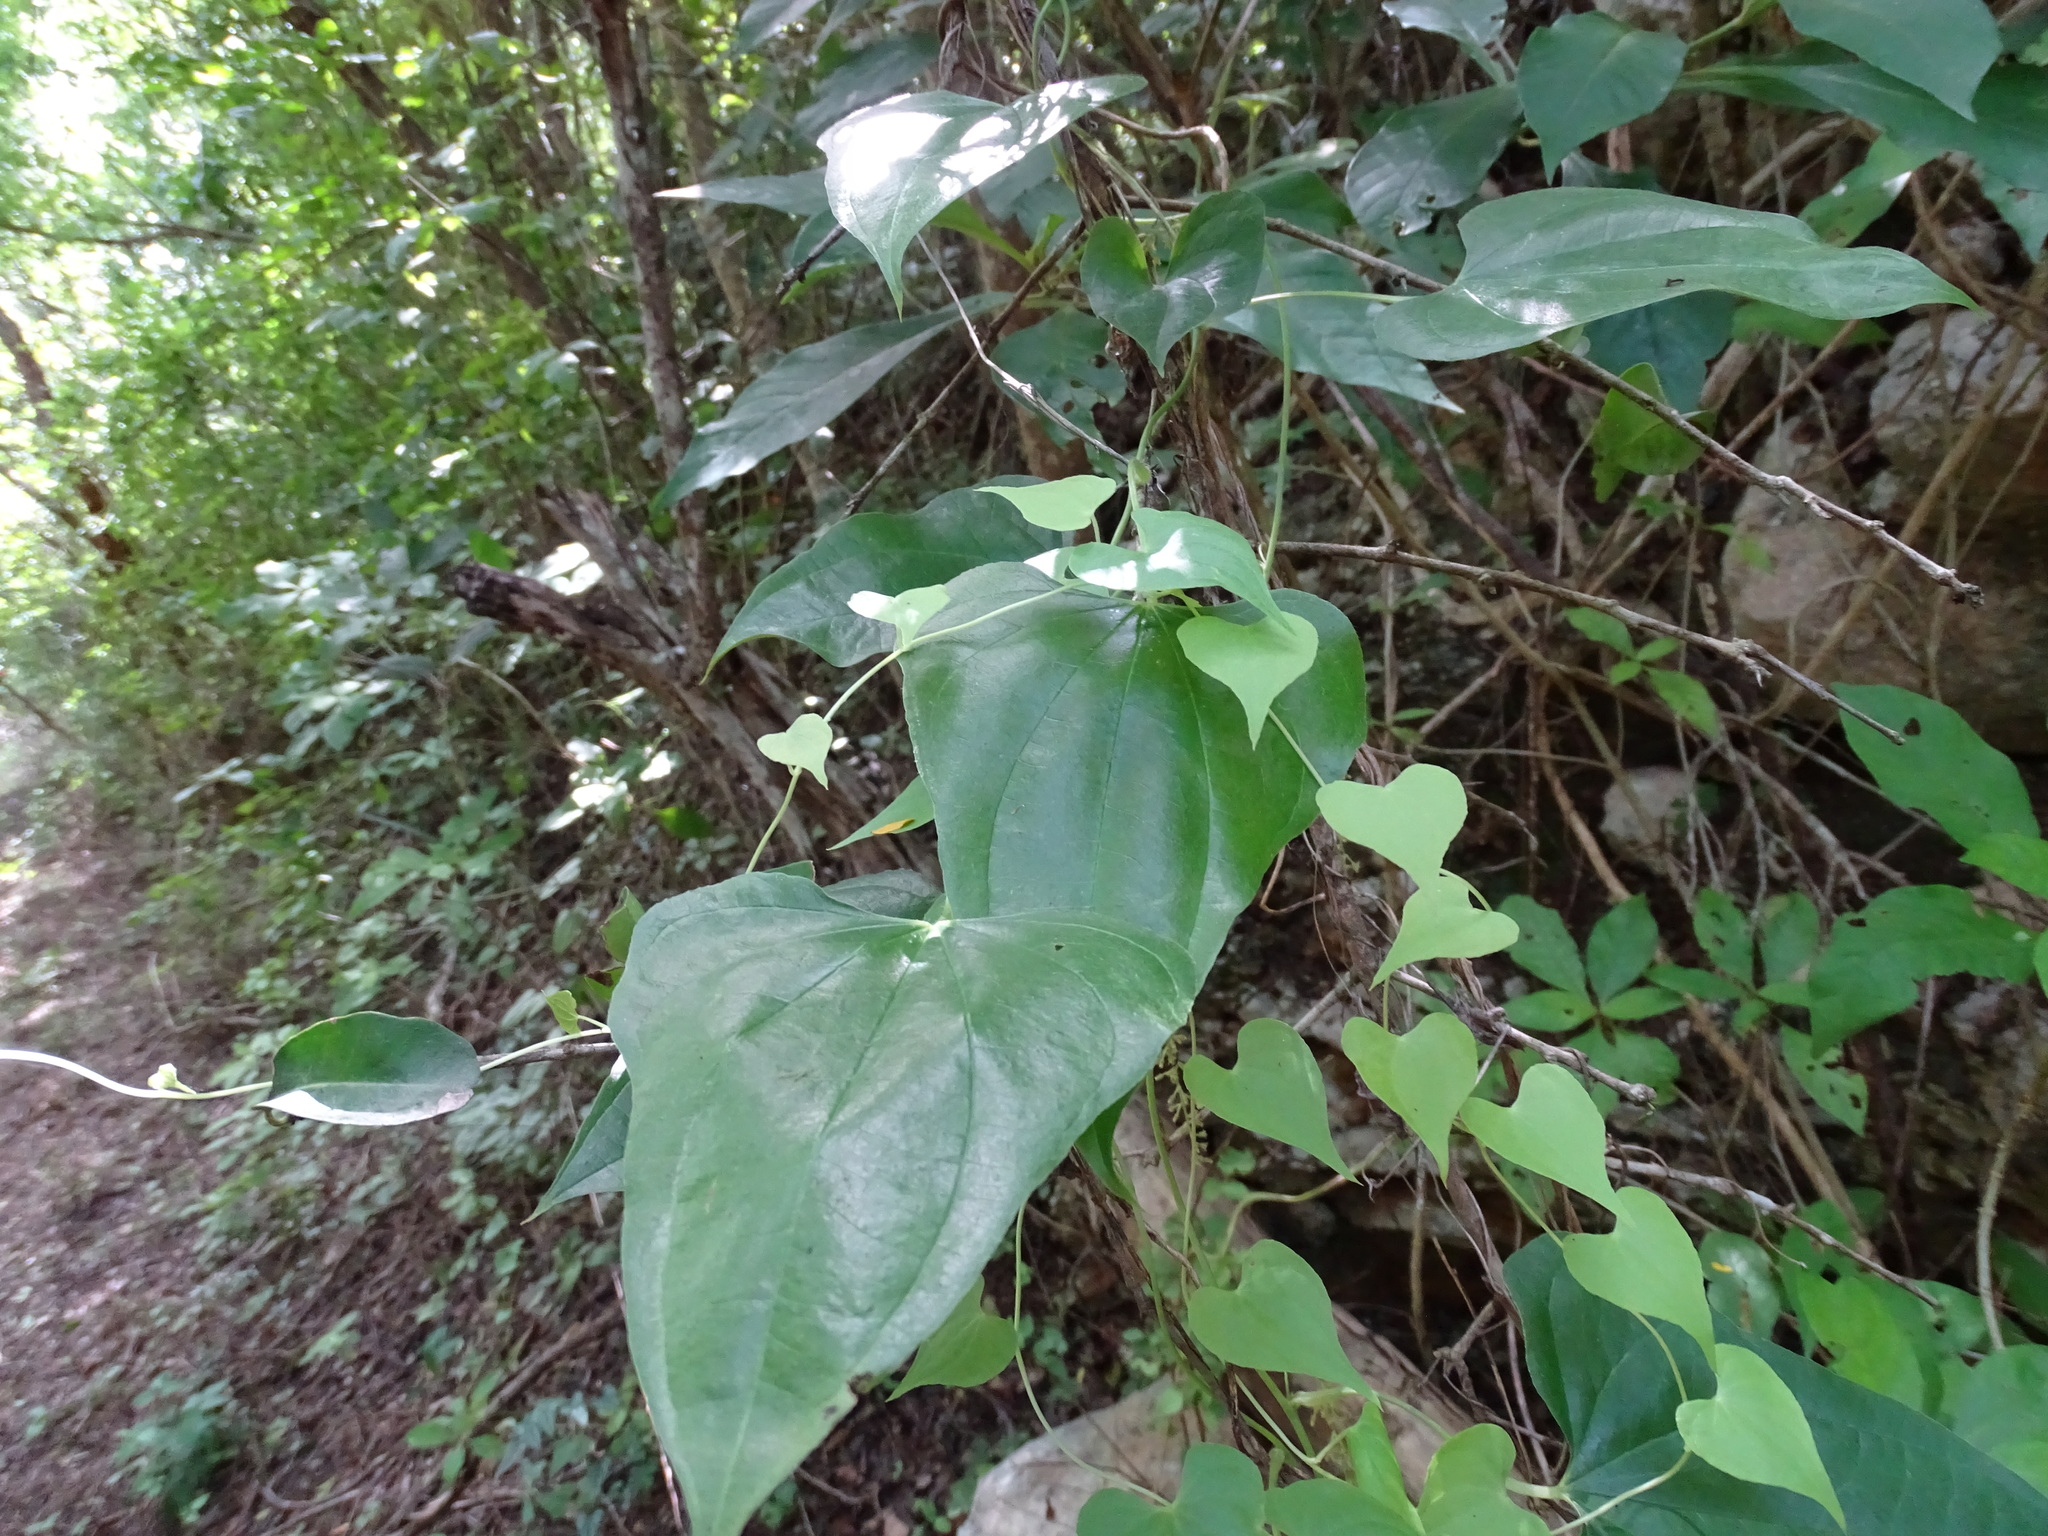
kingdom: Plantae
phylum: Tracheophyta
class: Liliopsida
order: Dioscoreales
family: Dioscoreaceae
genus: Dioscorea
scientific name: Dioscorea densiflora
